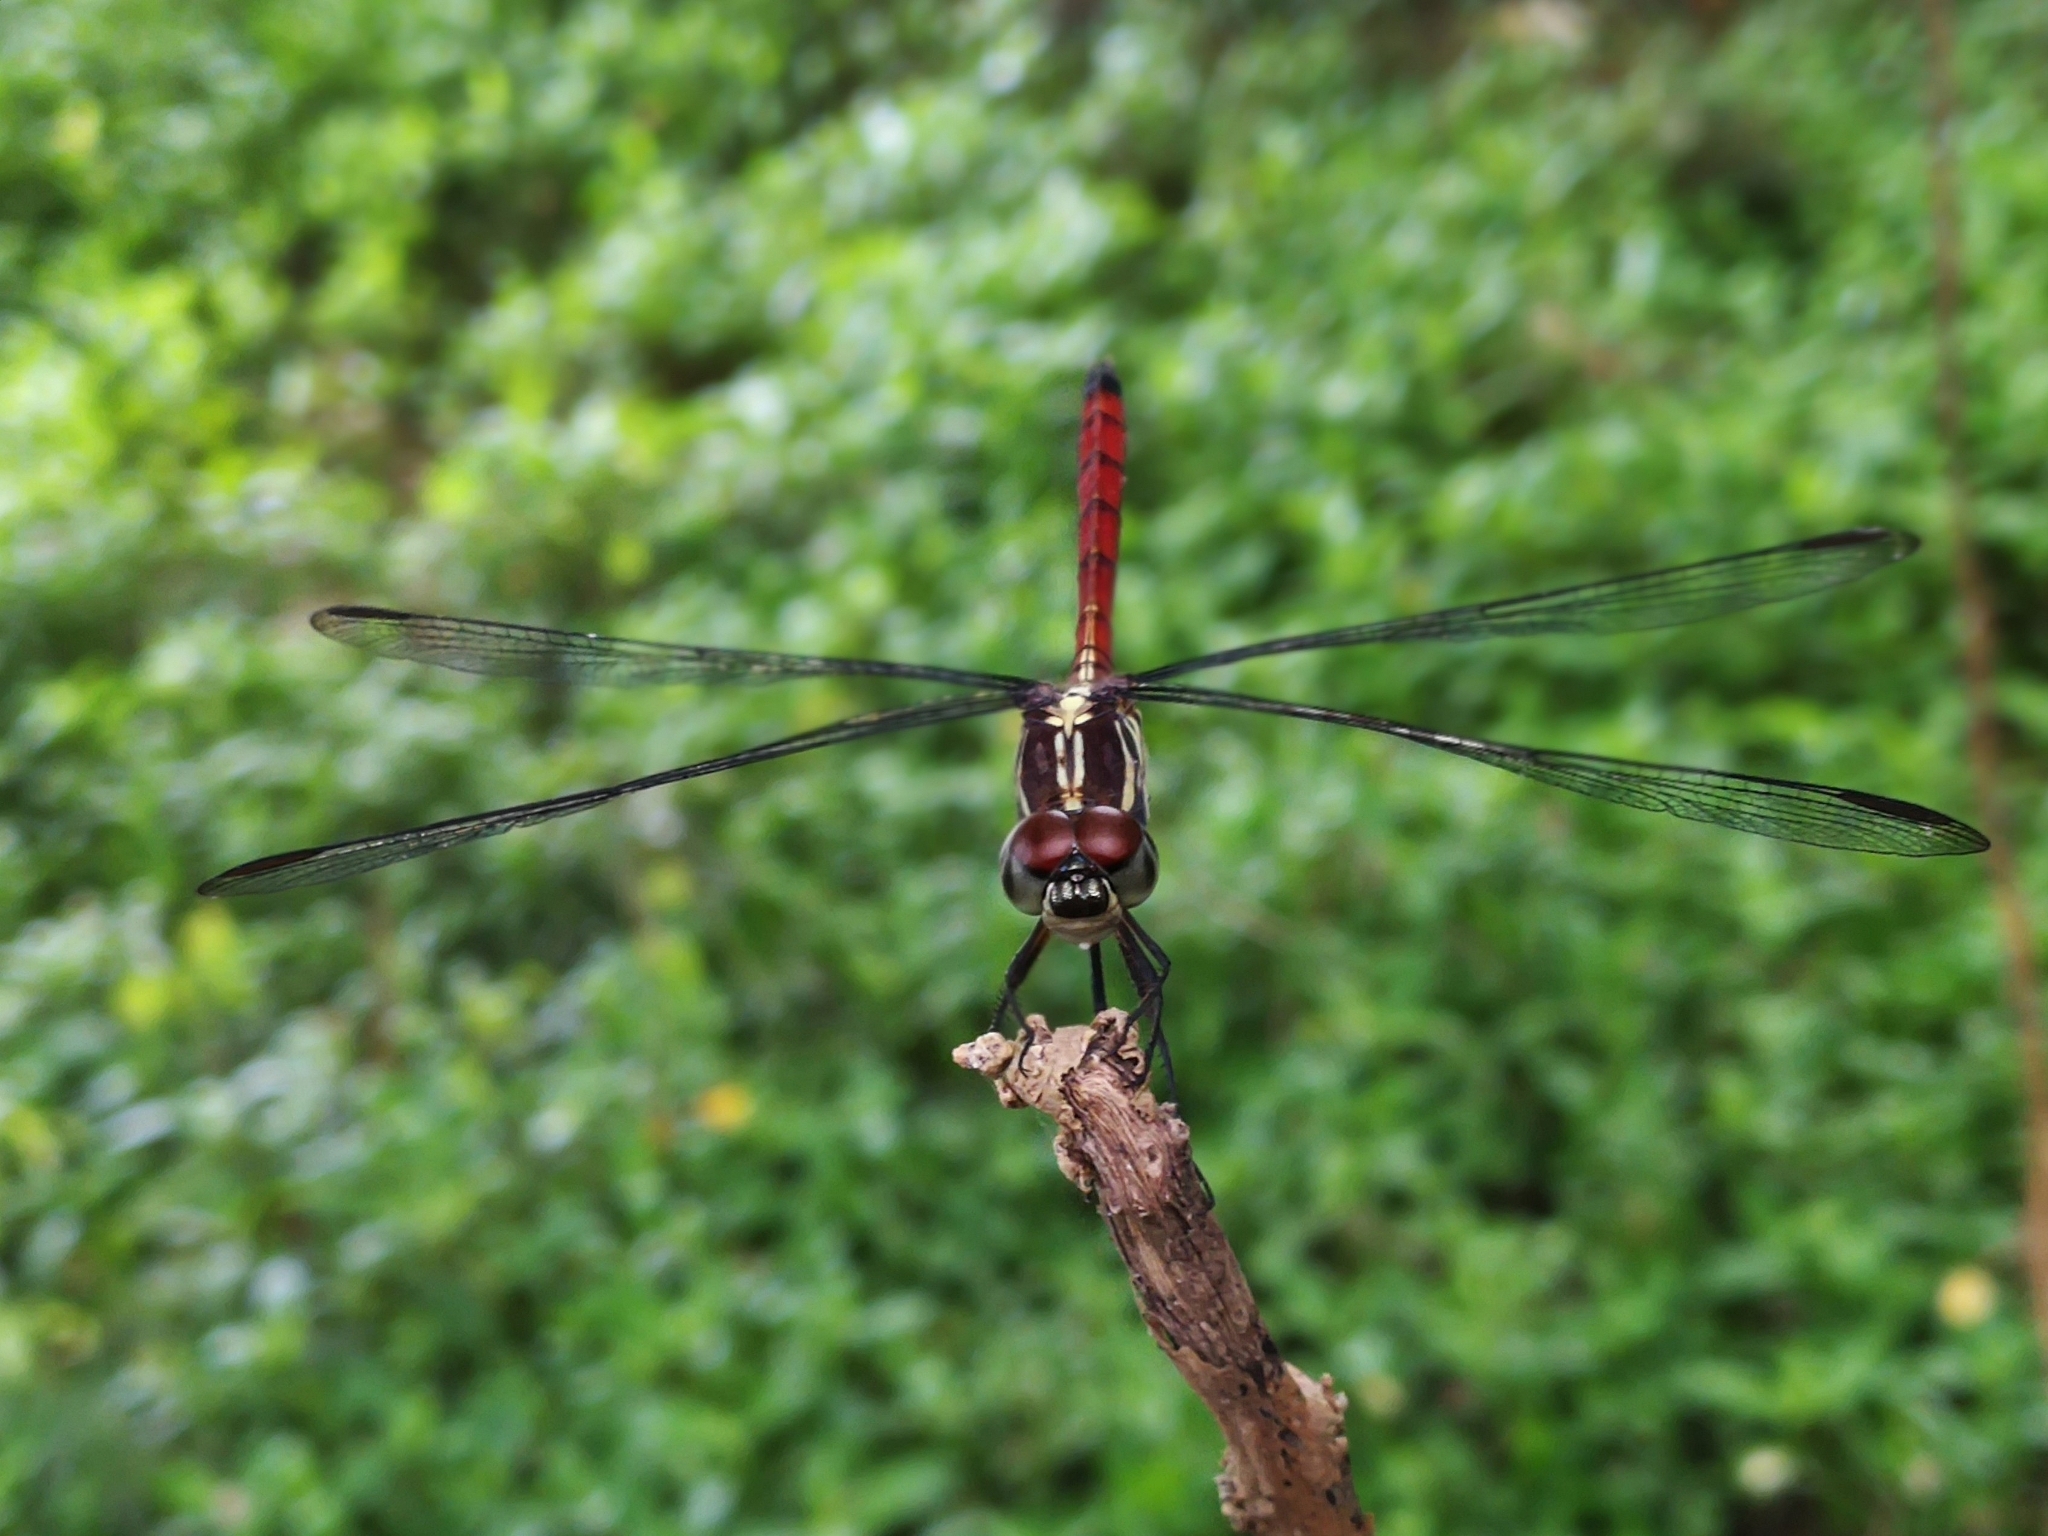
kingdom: Animalia
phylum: Arthropoda
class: Insecta
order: Odonata
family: Libellulidae
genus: Lathrecista
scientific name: Lathrecista asiatica
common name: Scarlet grenadier
